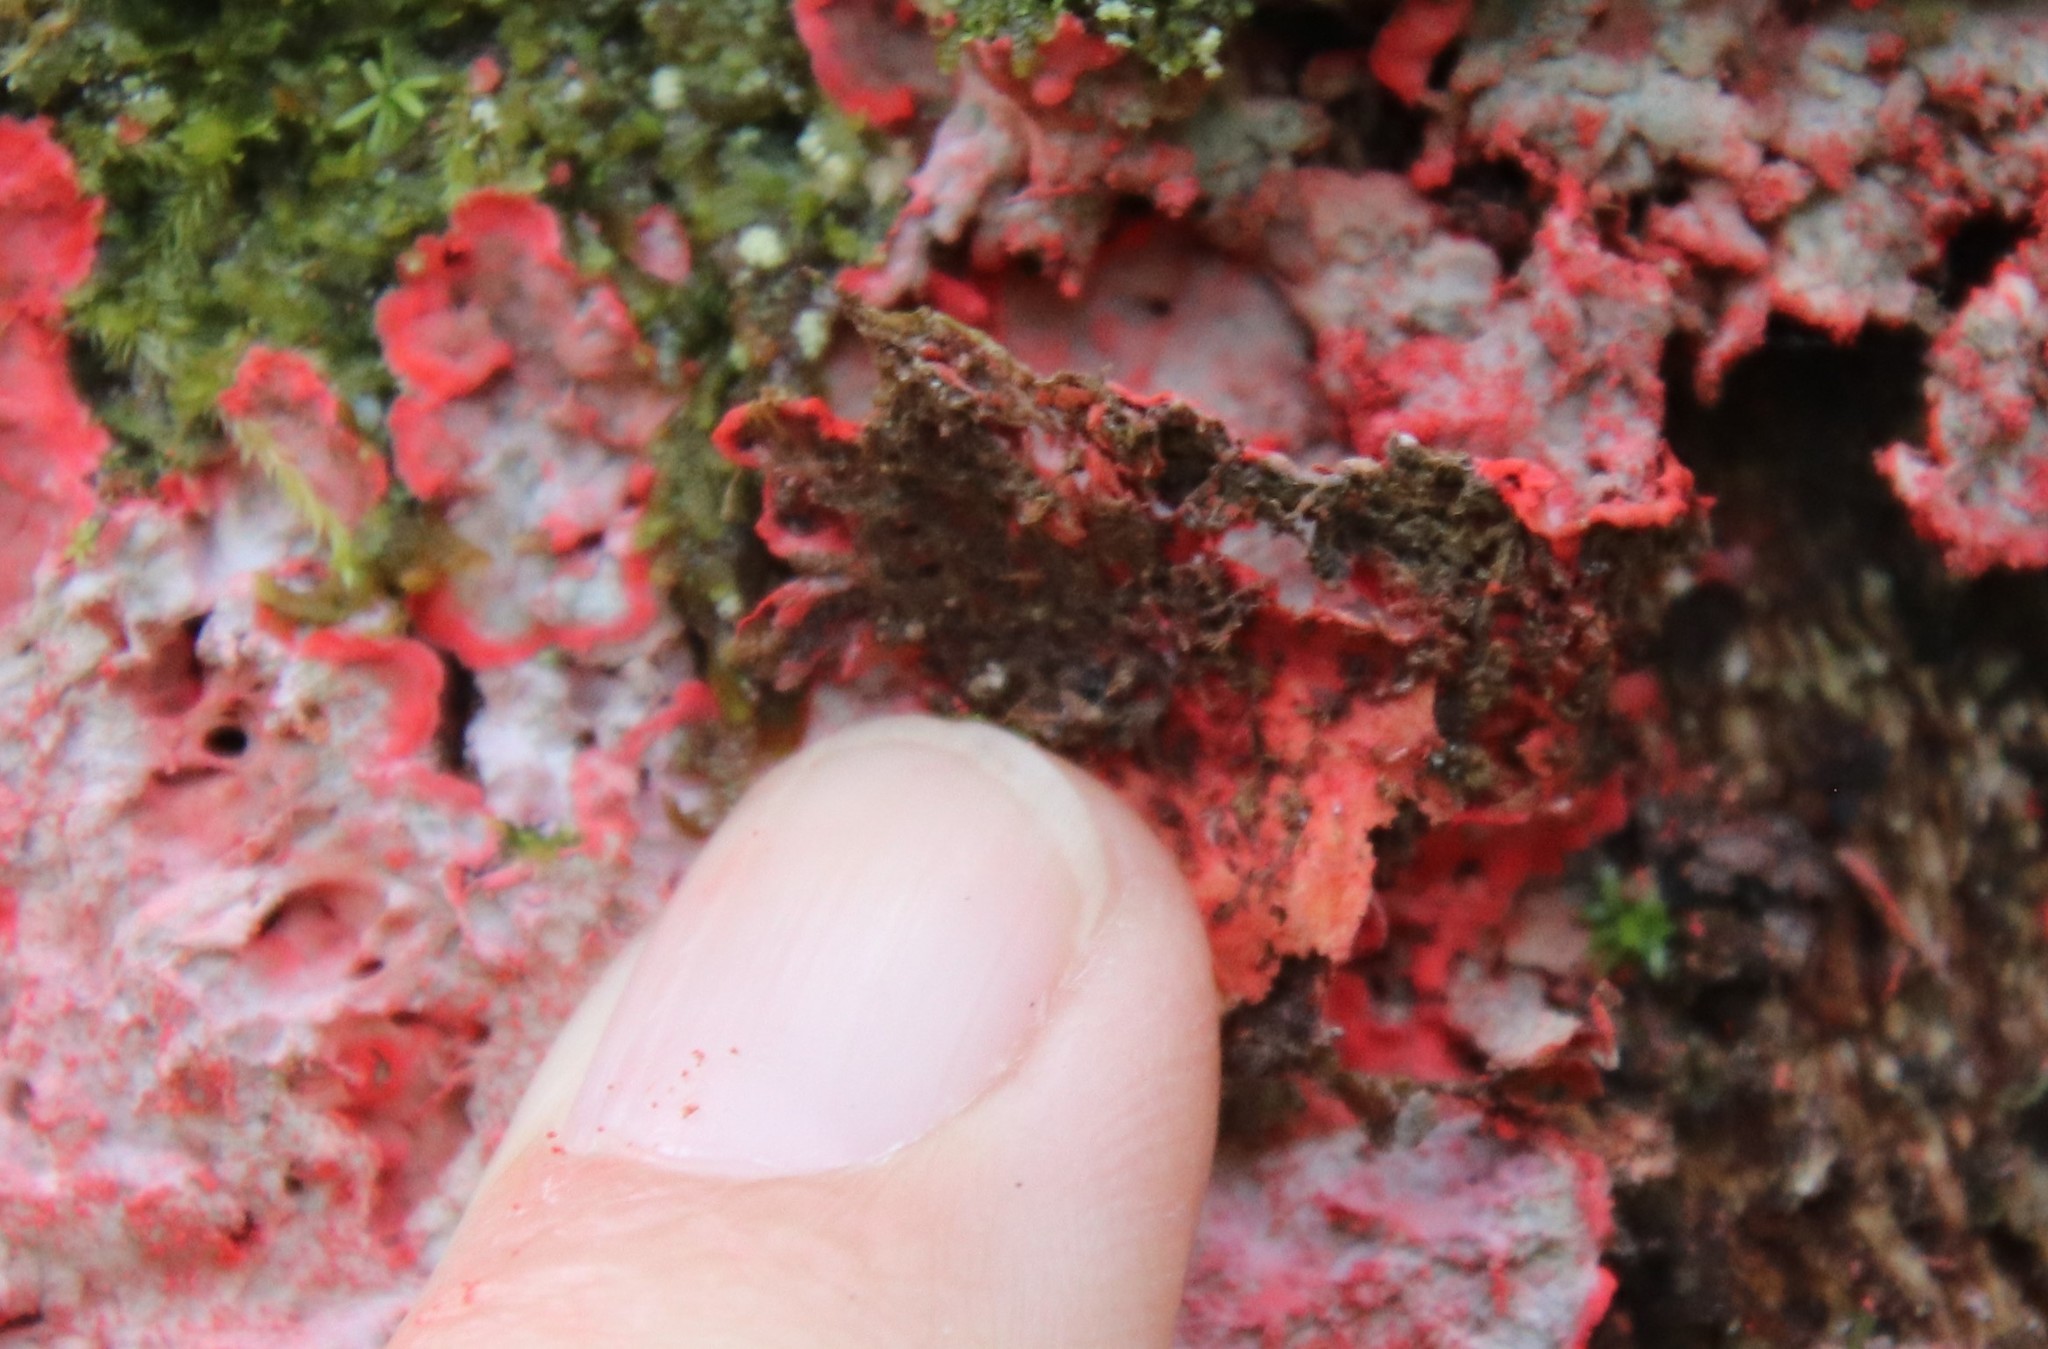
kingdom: Fungi
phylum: Ascomycota
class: Arthoniomycetes
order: Arthoniales
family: Arthoniaceae
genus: Herpothallon
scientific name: Herpothallon rubrocinctum
